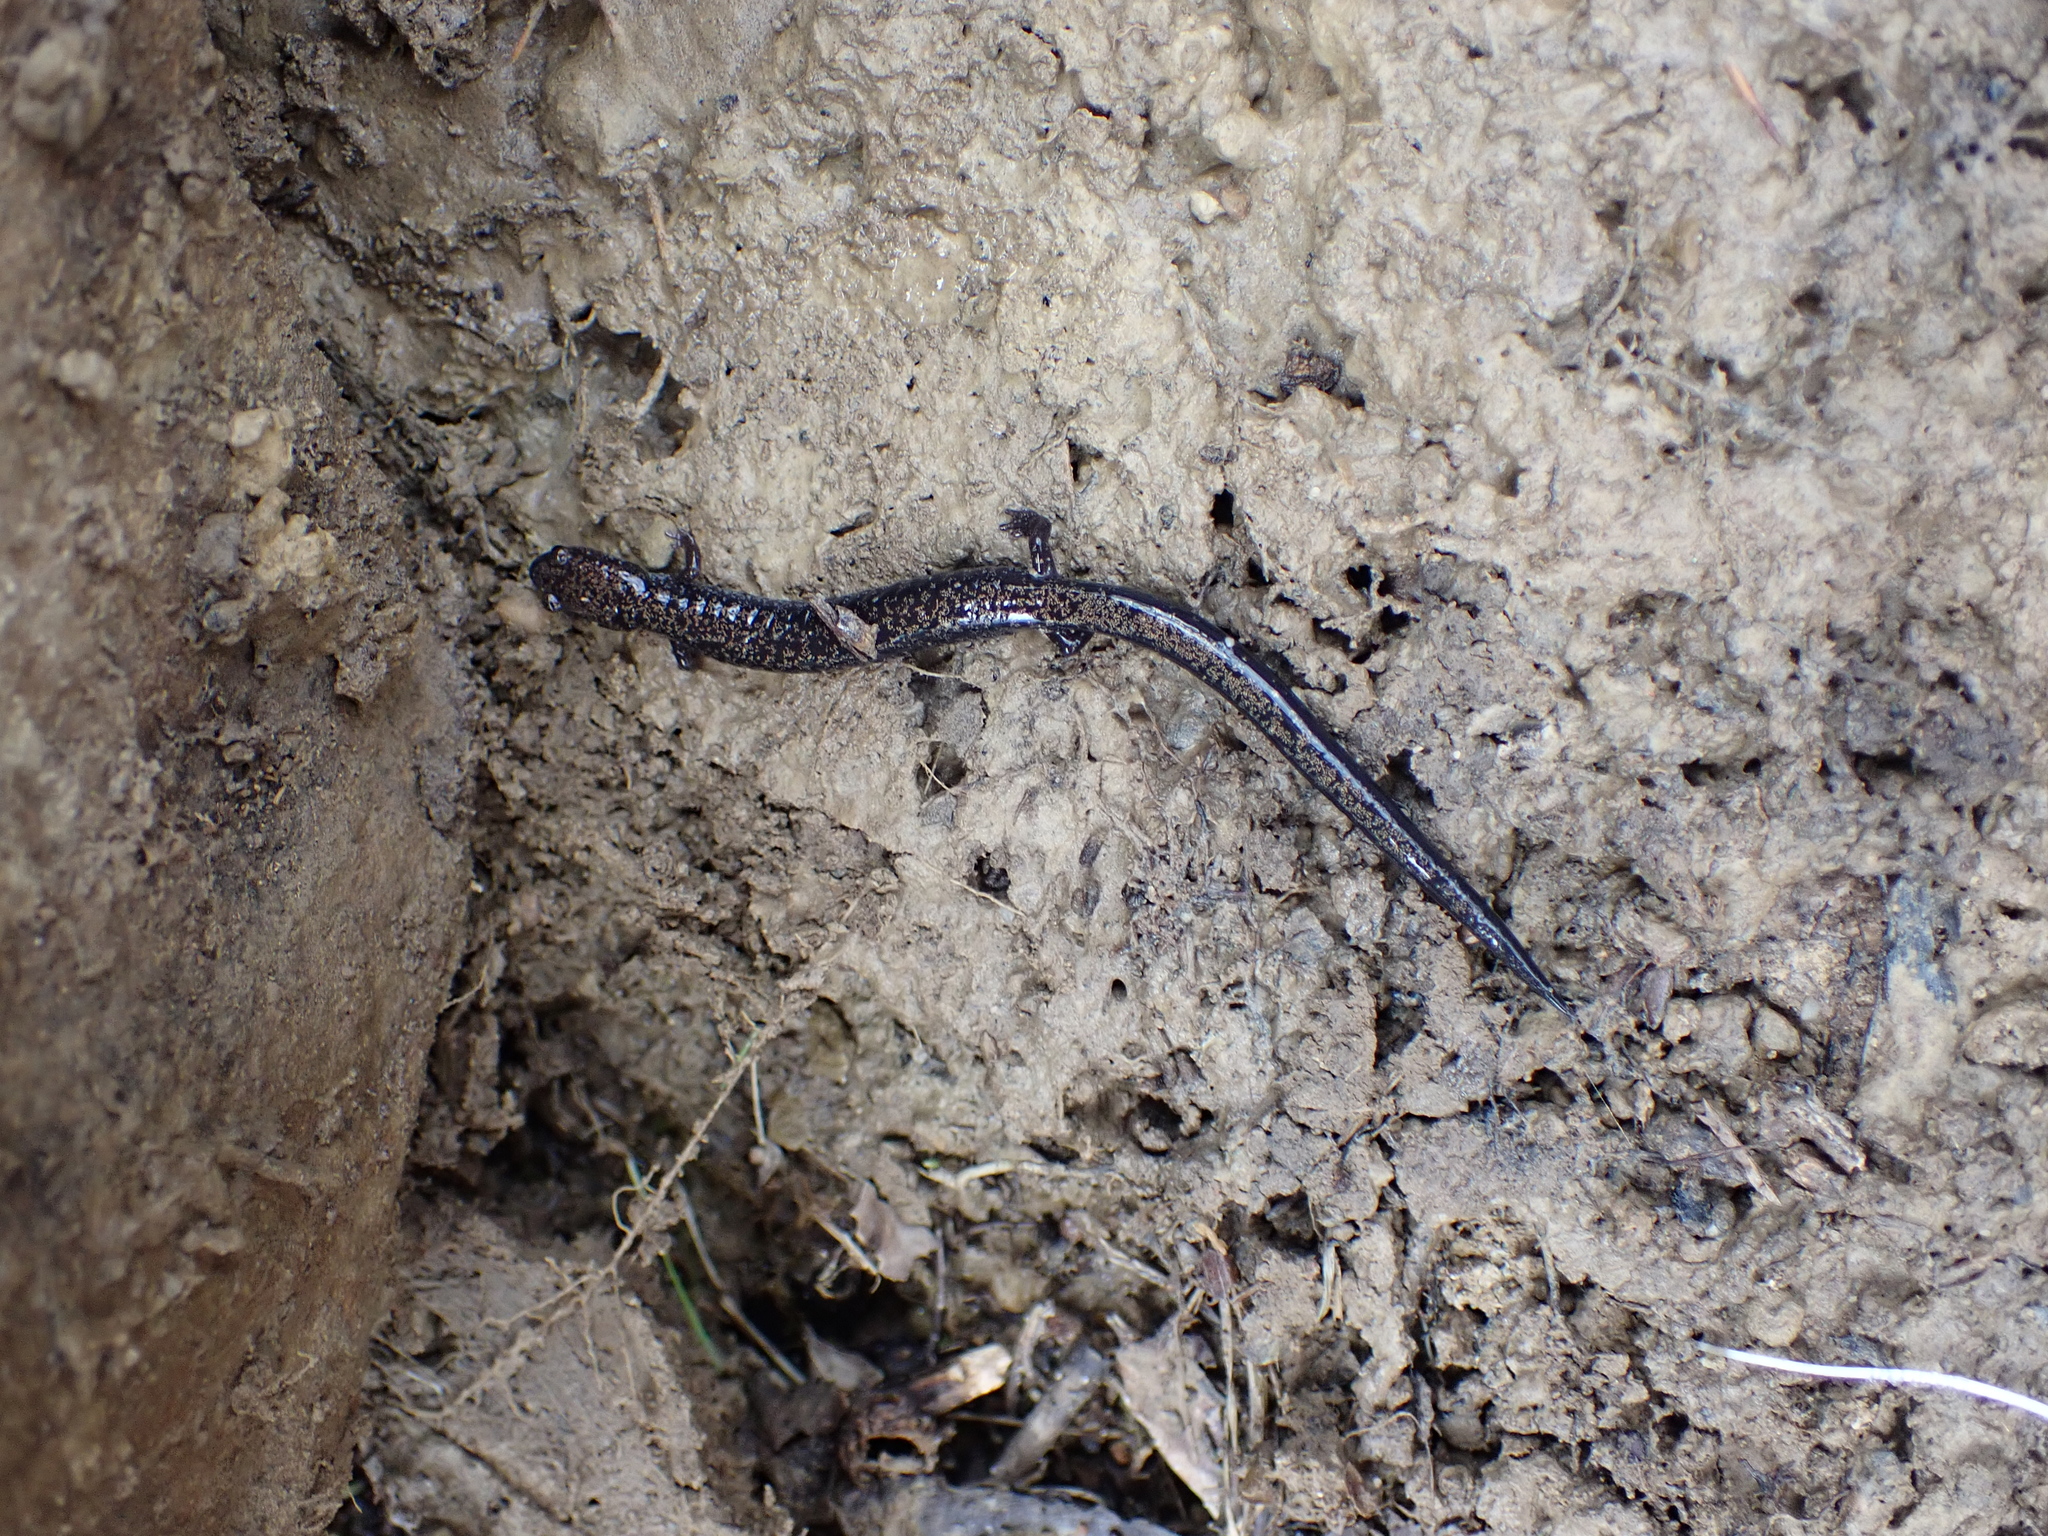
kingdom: Animalia
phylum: Chordata
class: Amphibia
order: Caudata
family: Plethodontidae
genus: Plethodon
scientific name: Plethodon richmondi
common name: Ravine salamander
